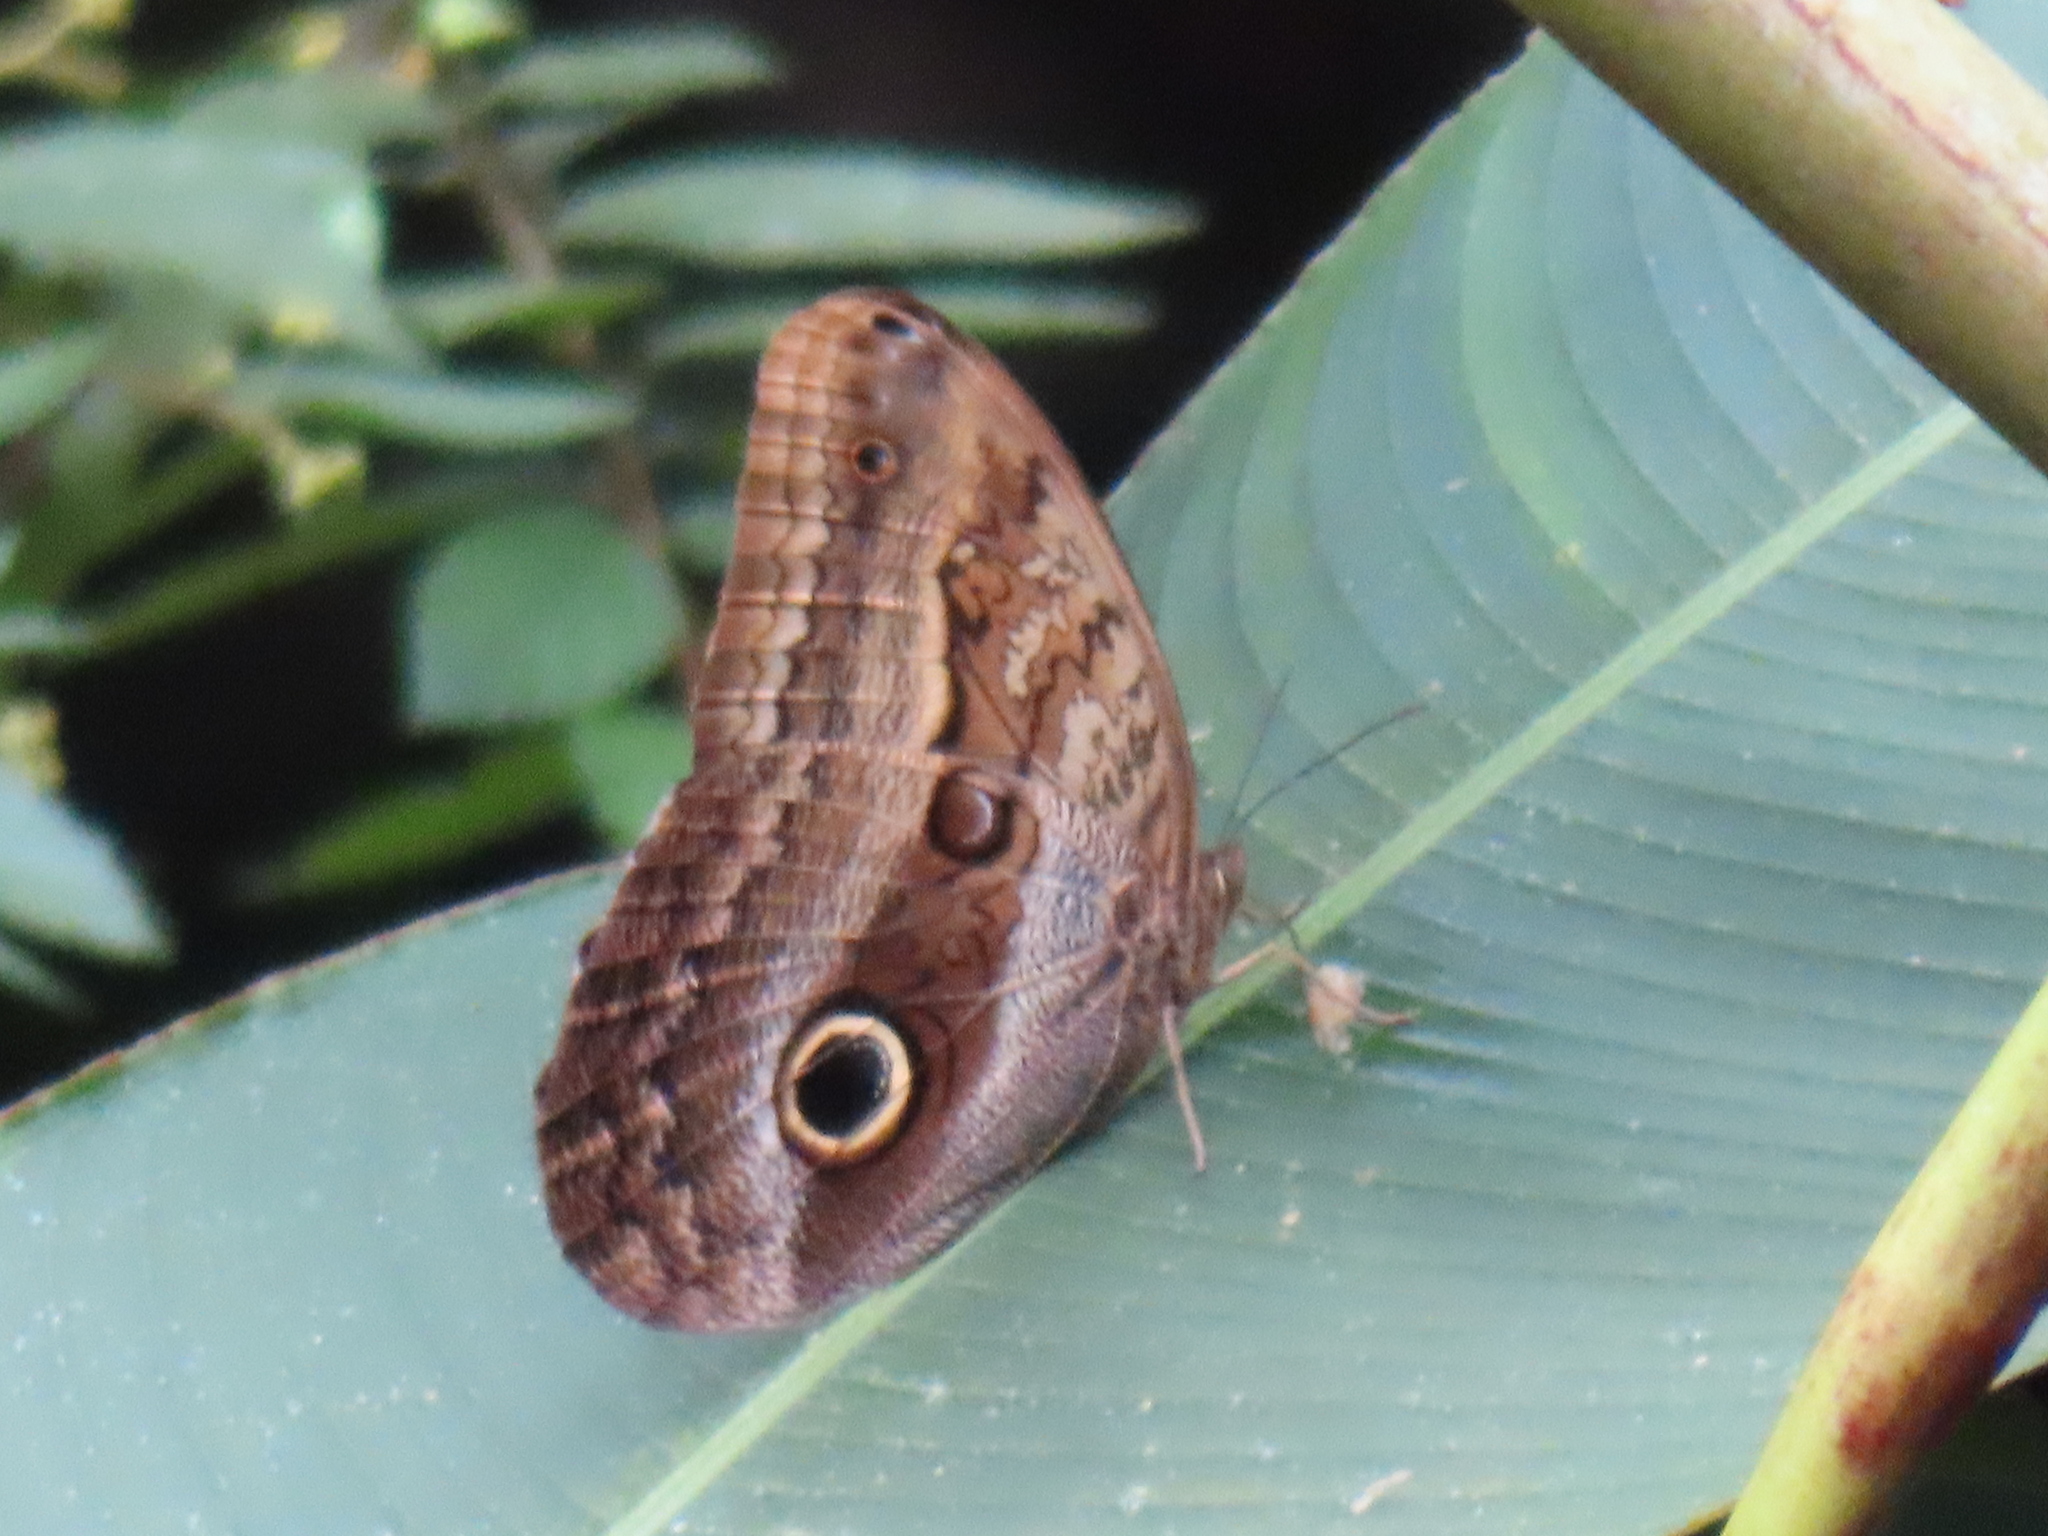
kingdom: Animalia
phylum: Arthropoda
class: Insecta
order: Lepidoptera
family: Nymphalidae
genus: Caligo
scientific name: Caligo oileus
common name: Oileus owl-butterfly
